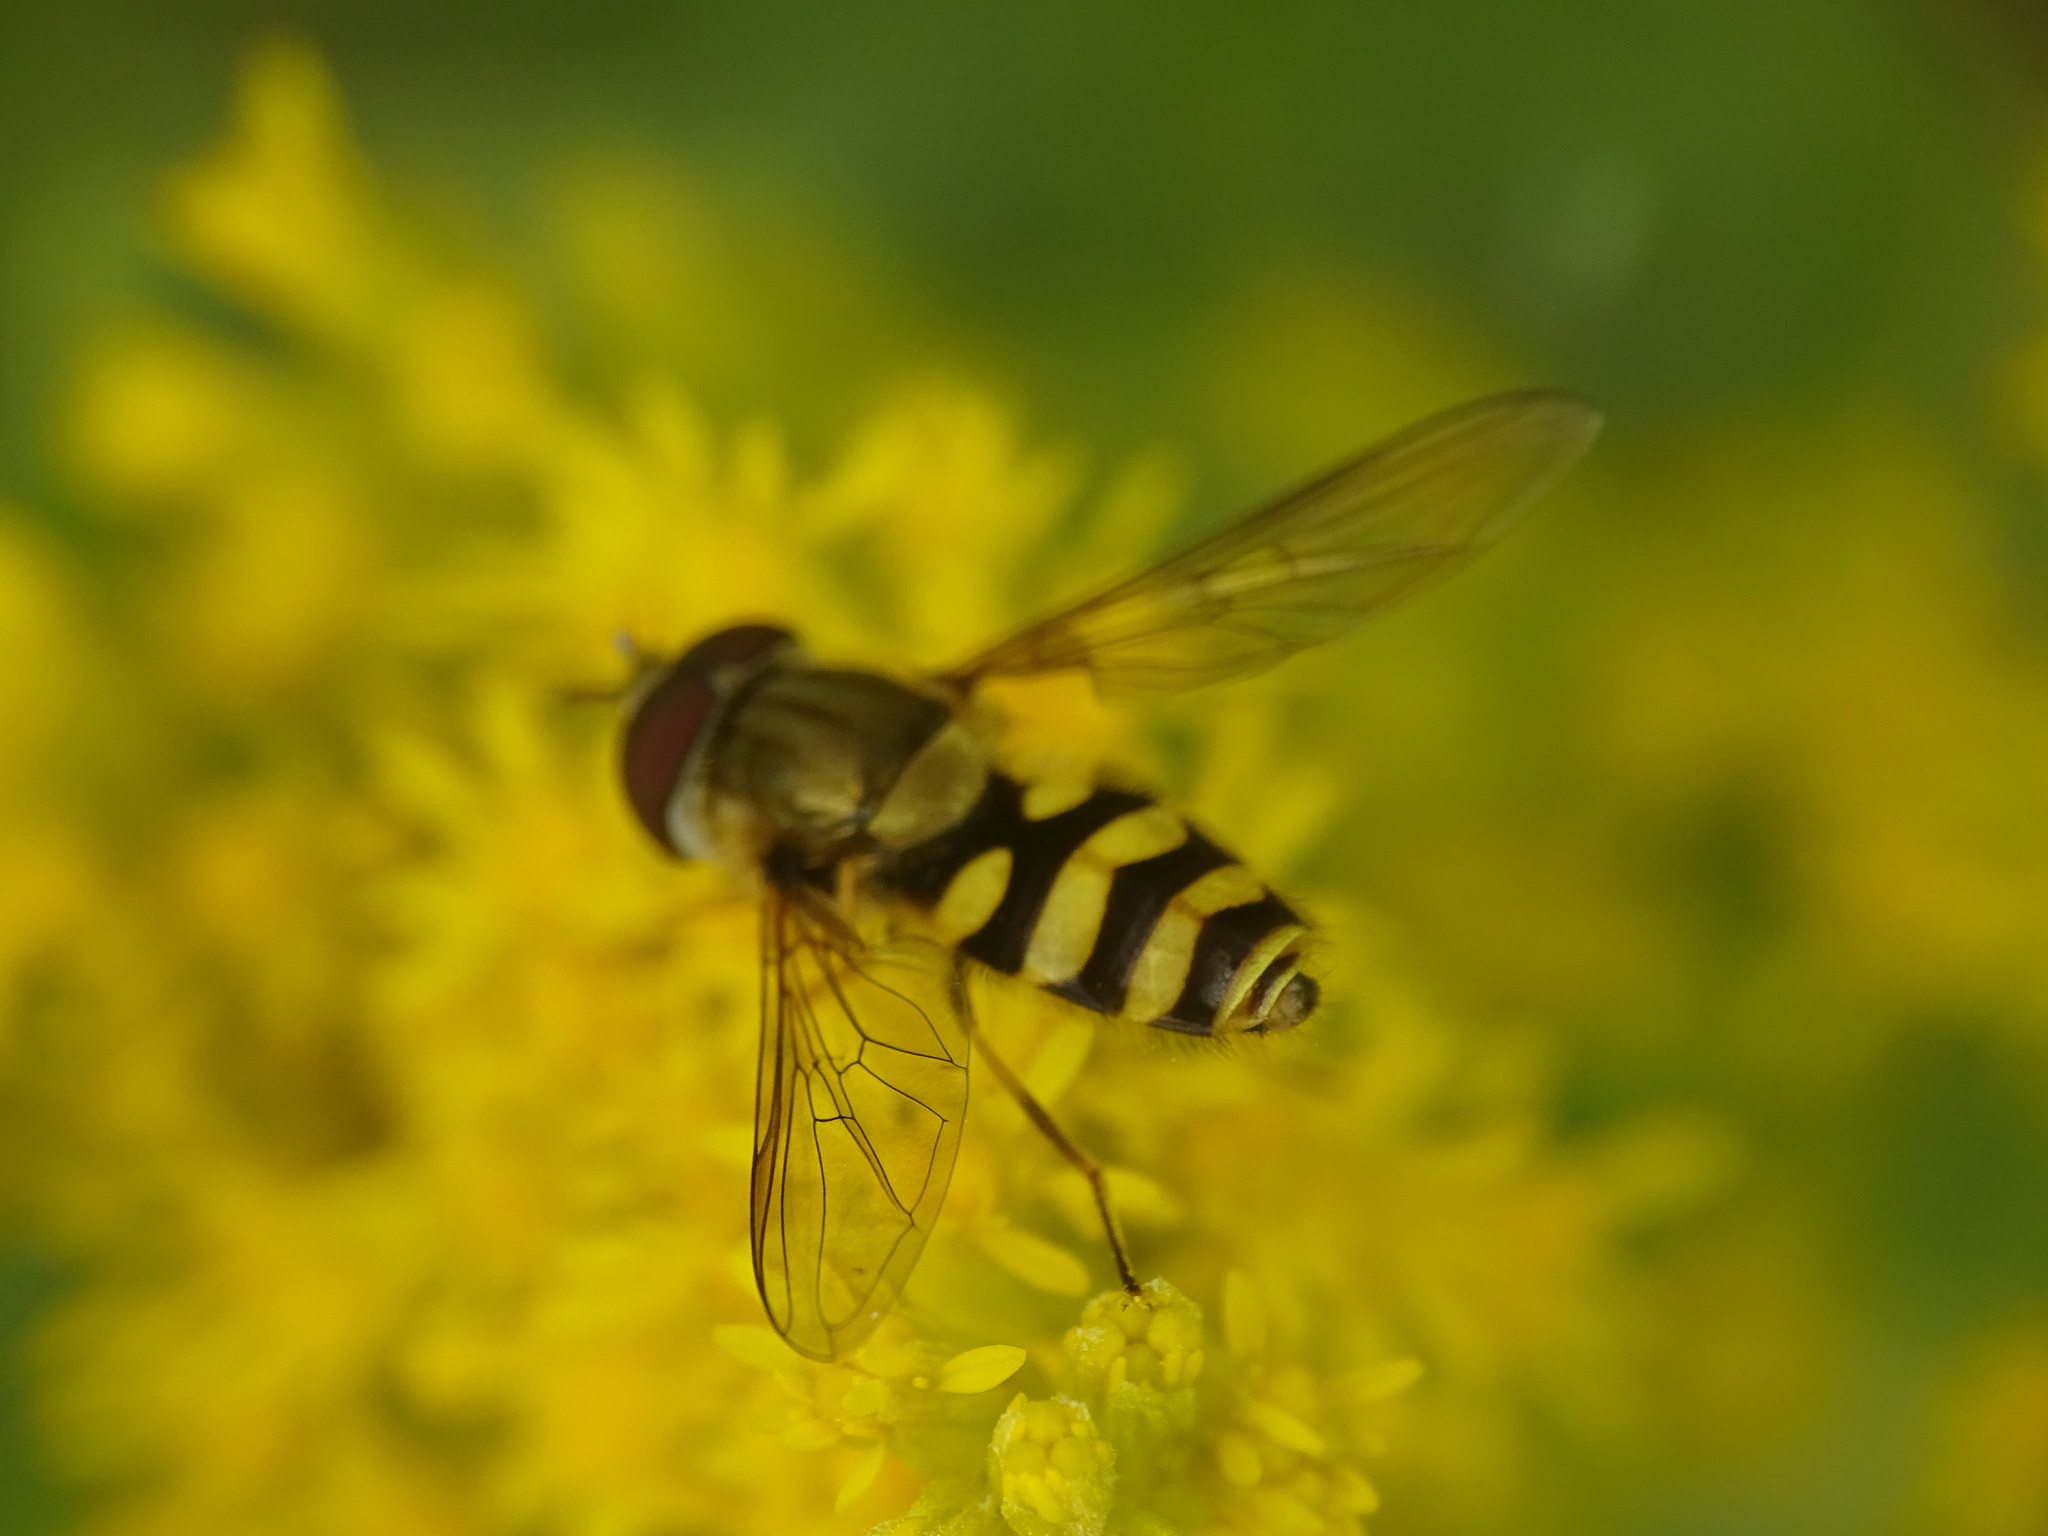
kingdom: Animalia
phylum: Arthropoda
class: Insecta
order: Diptera
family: Syrphidae
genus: Syrphus
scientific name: Syrphus
